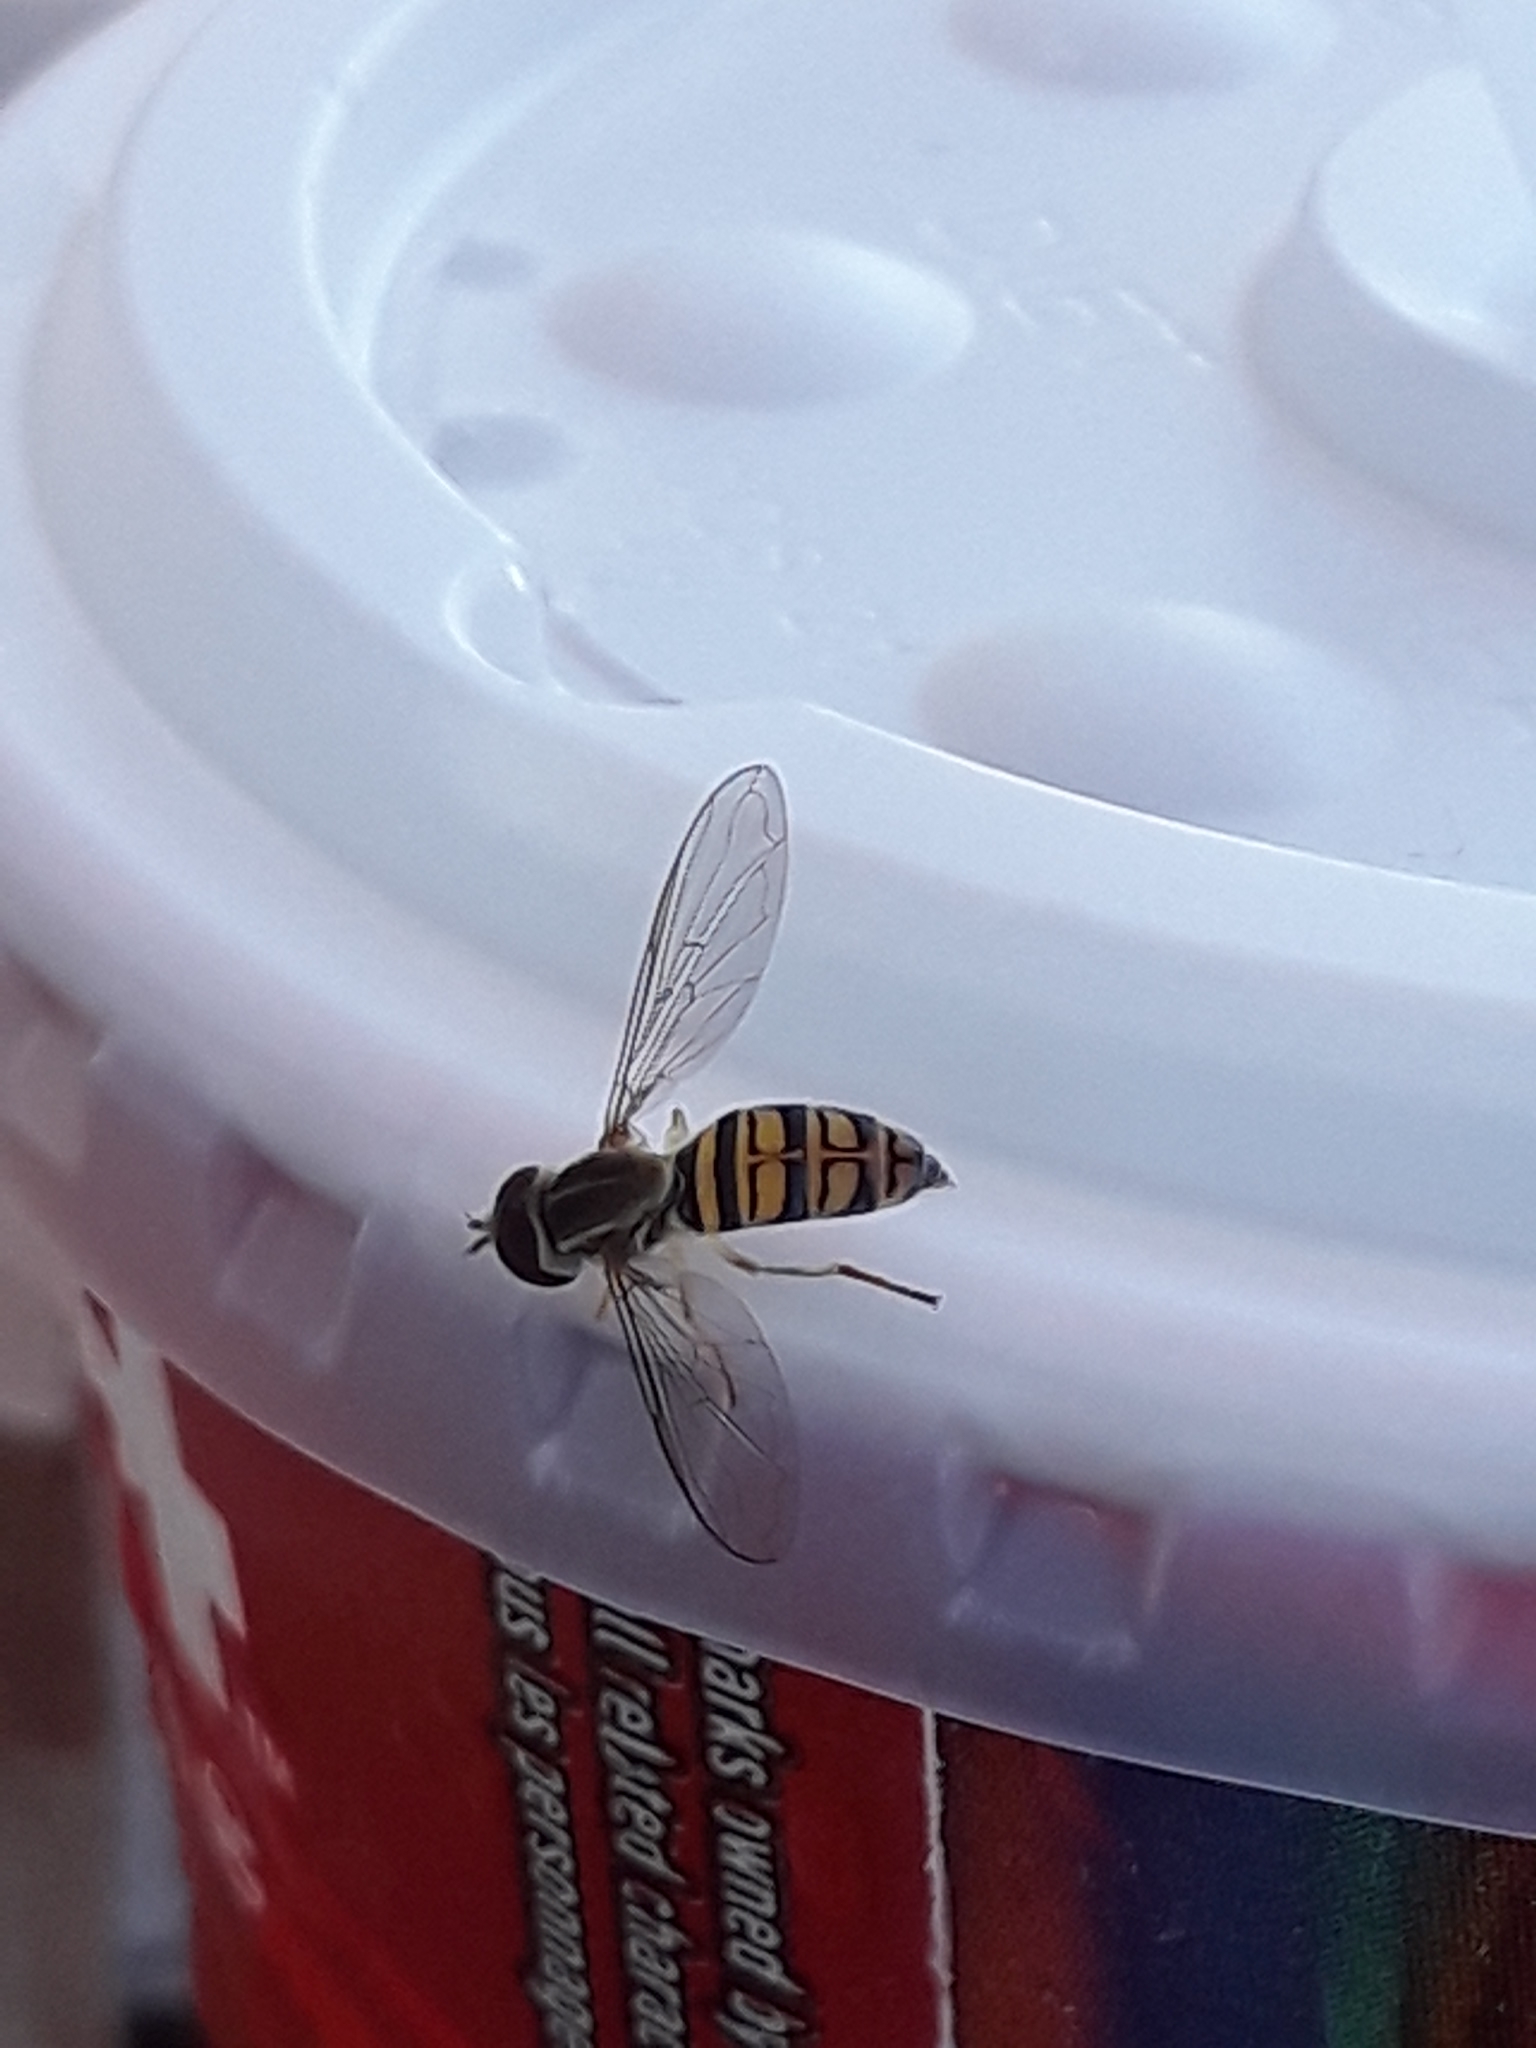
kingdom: Animalia
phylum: Arthropoda
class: Insecta
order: Diptera
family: Syrphidae
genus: Toxomerus
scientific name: Toxomerus politus
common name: Maize calligrapher
